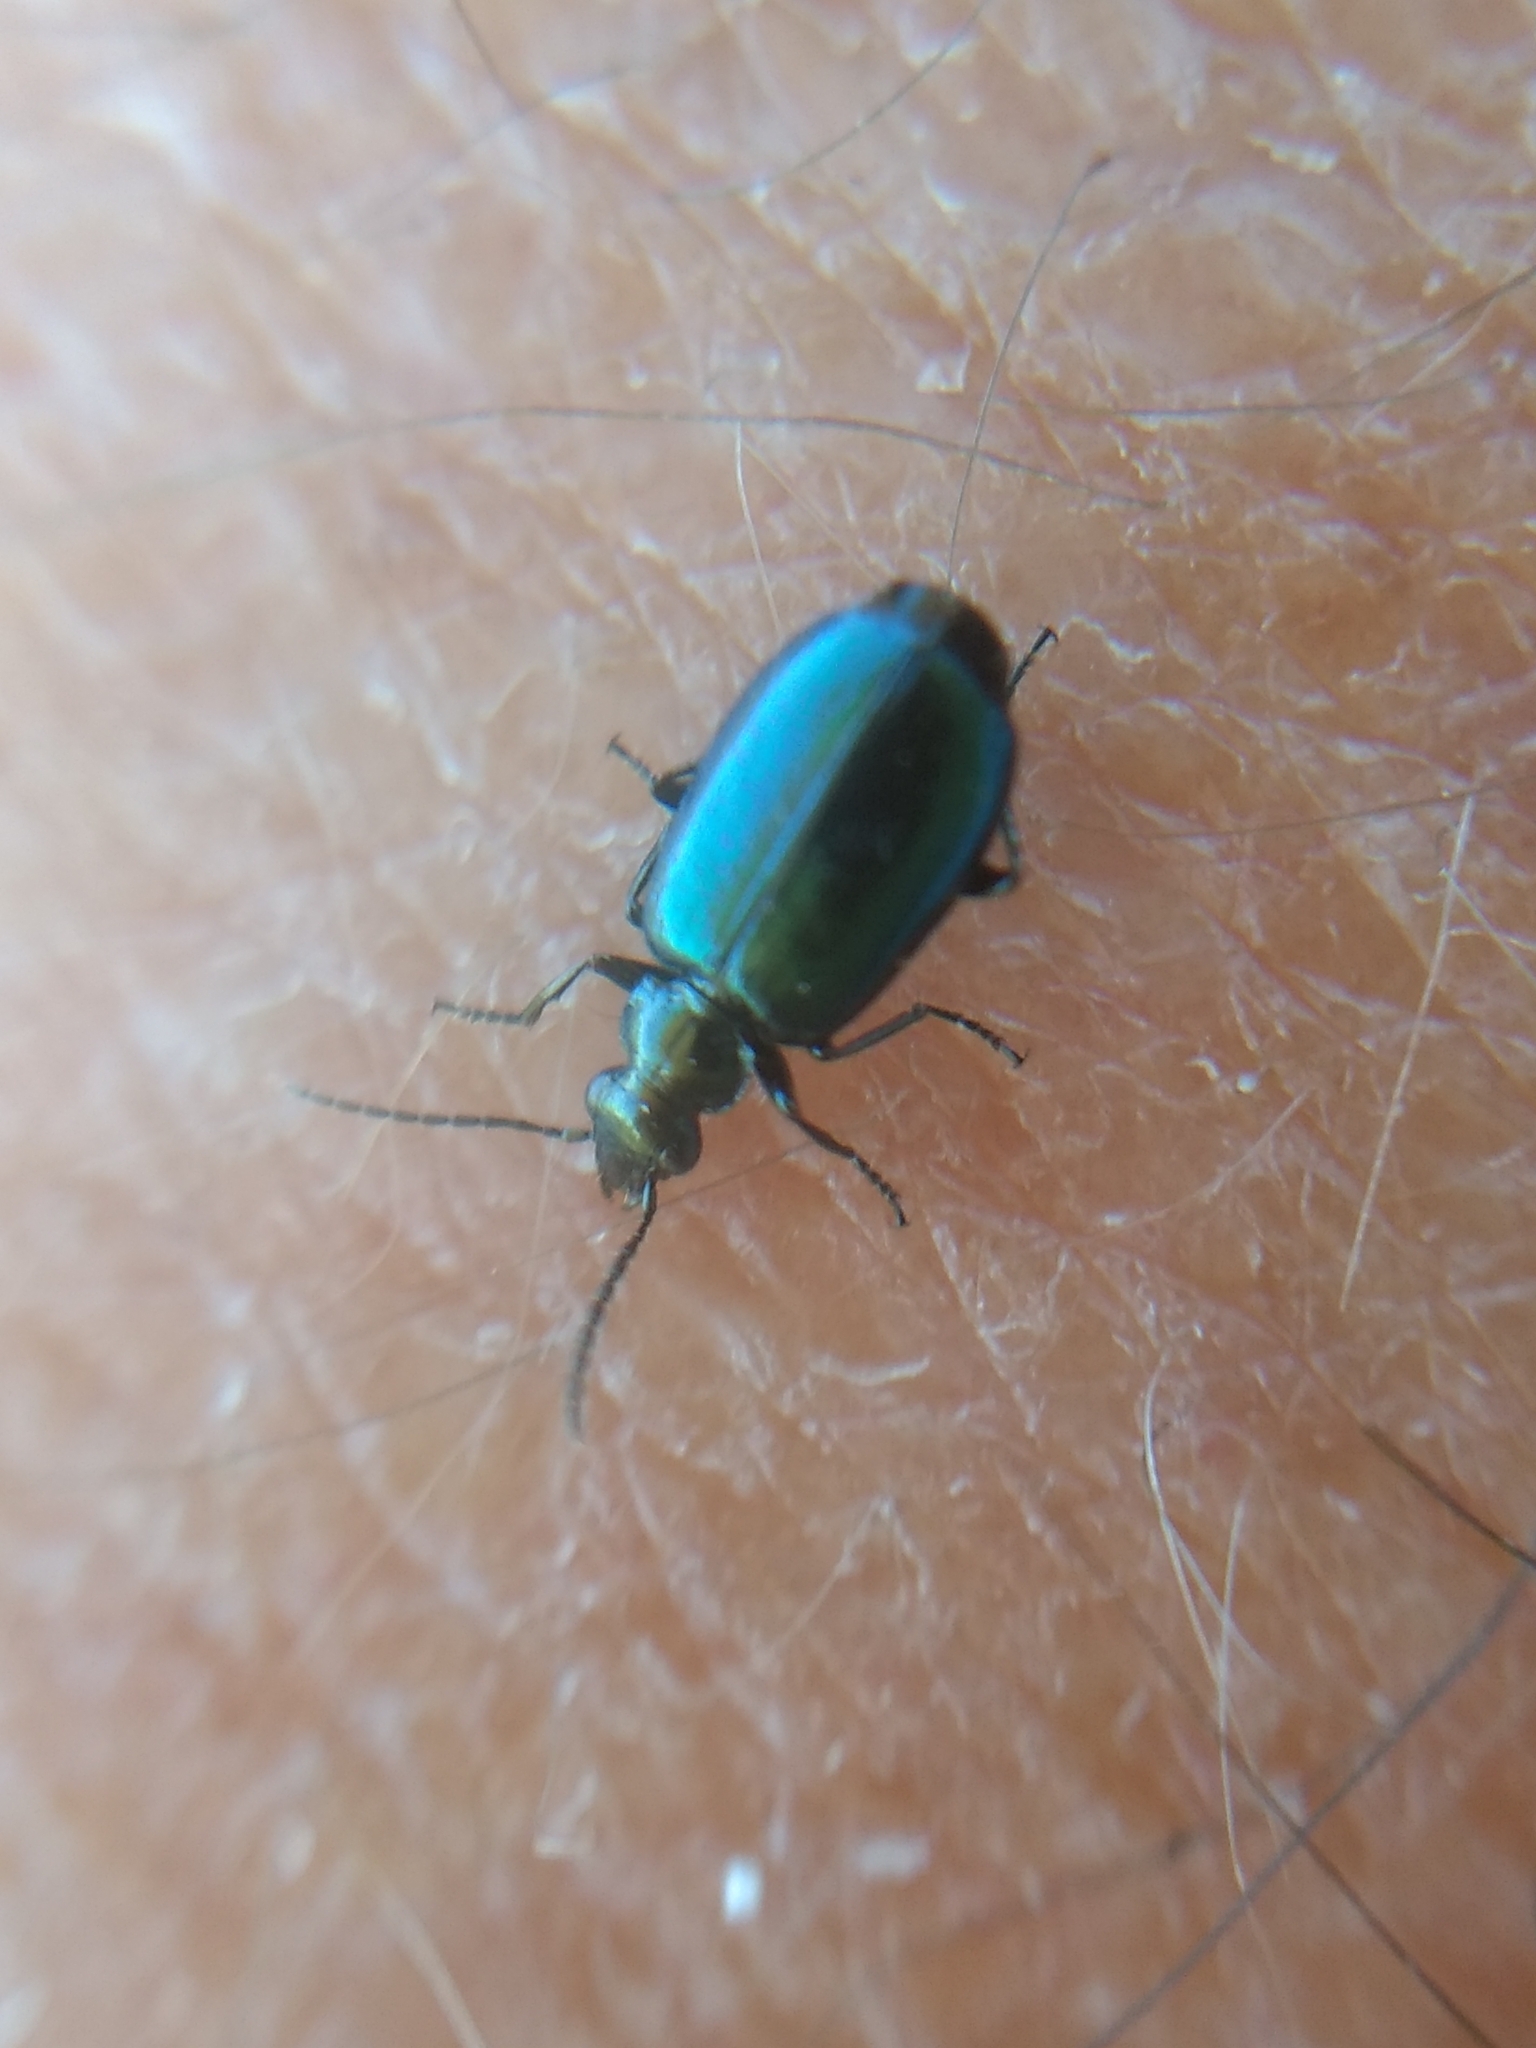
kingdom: Animalia
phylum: Arthropoda
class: Insecta
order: Coleoptera
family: Carabidae
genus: Lebia
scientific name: Lebia viridis
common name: Flower lebia beetle
